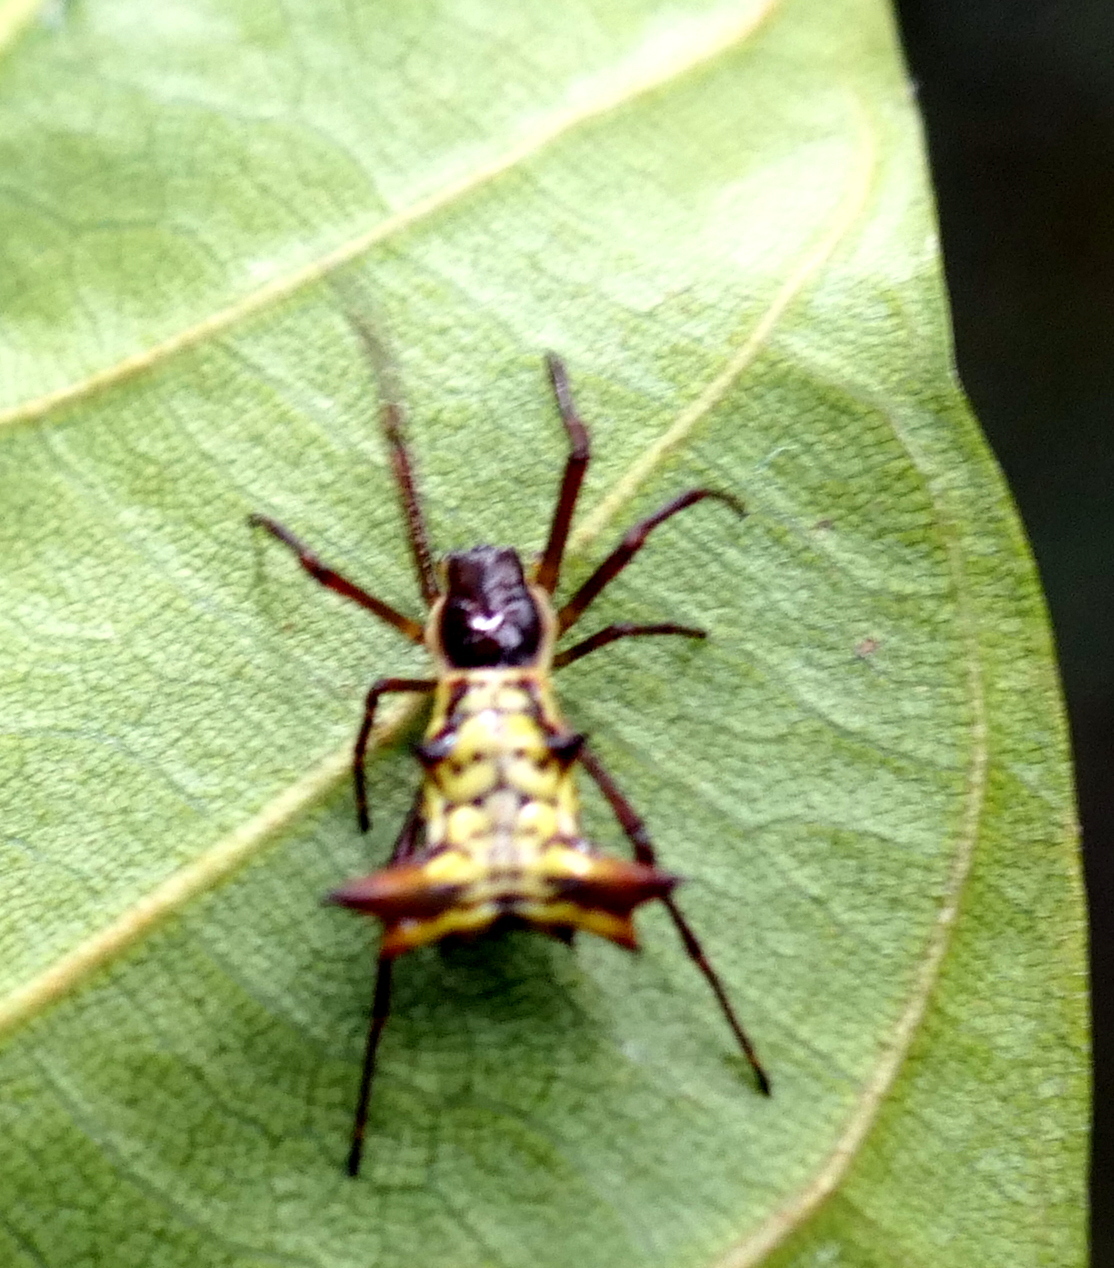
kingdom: Animalia
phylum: Arthropoda
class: Arachnida
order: Araneae
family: Araneidae
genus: Micrathena
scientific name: Micrathena fissispina
